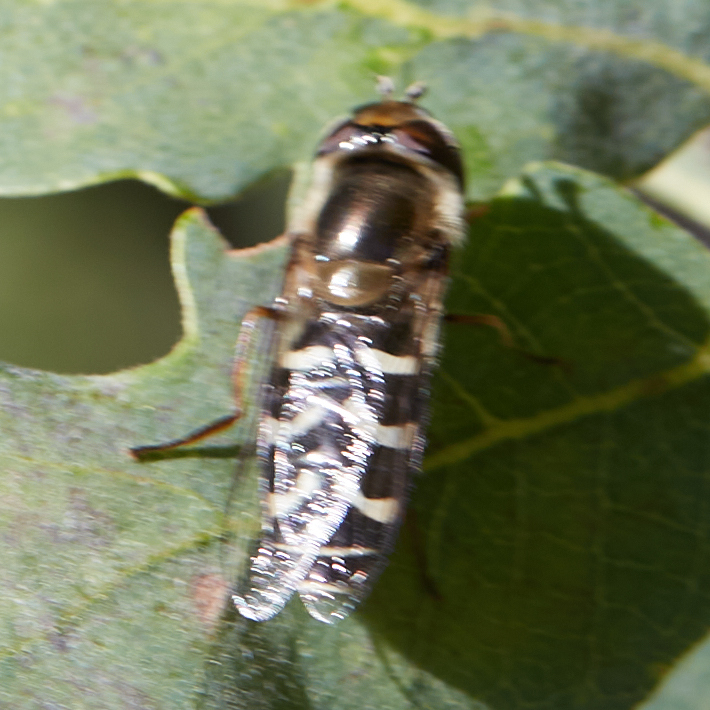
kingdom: Animalia
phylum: Arthropoda
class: Insecta
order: Diptera
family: Syrphidae
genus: Scaeva
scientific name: Scaeva affinis
